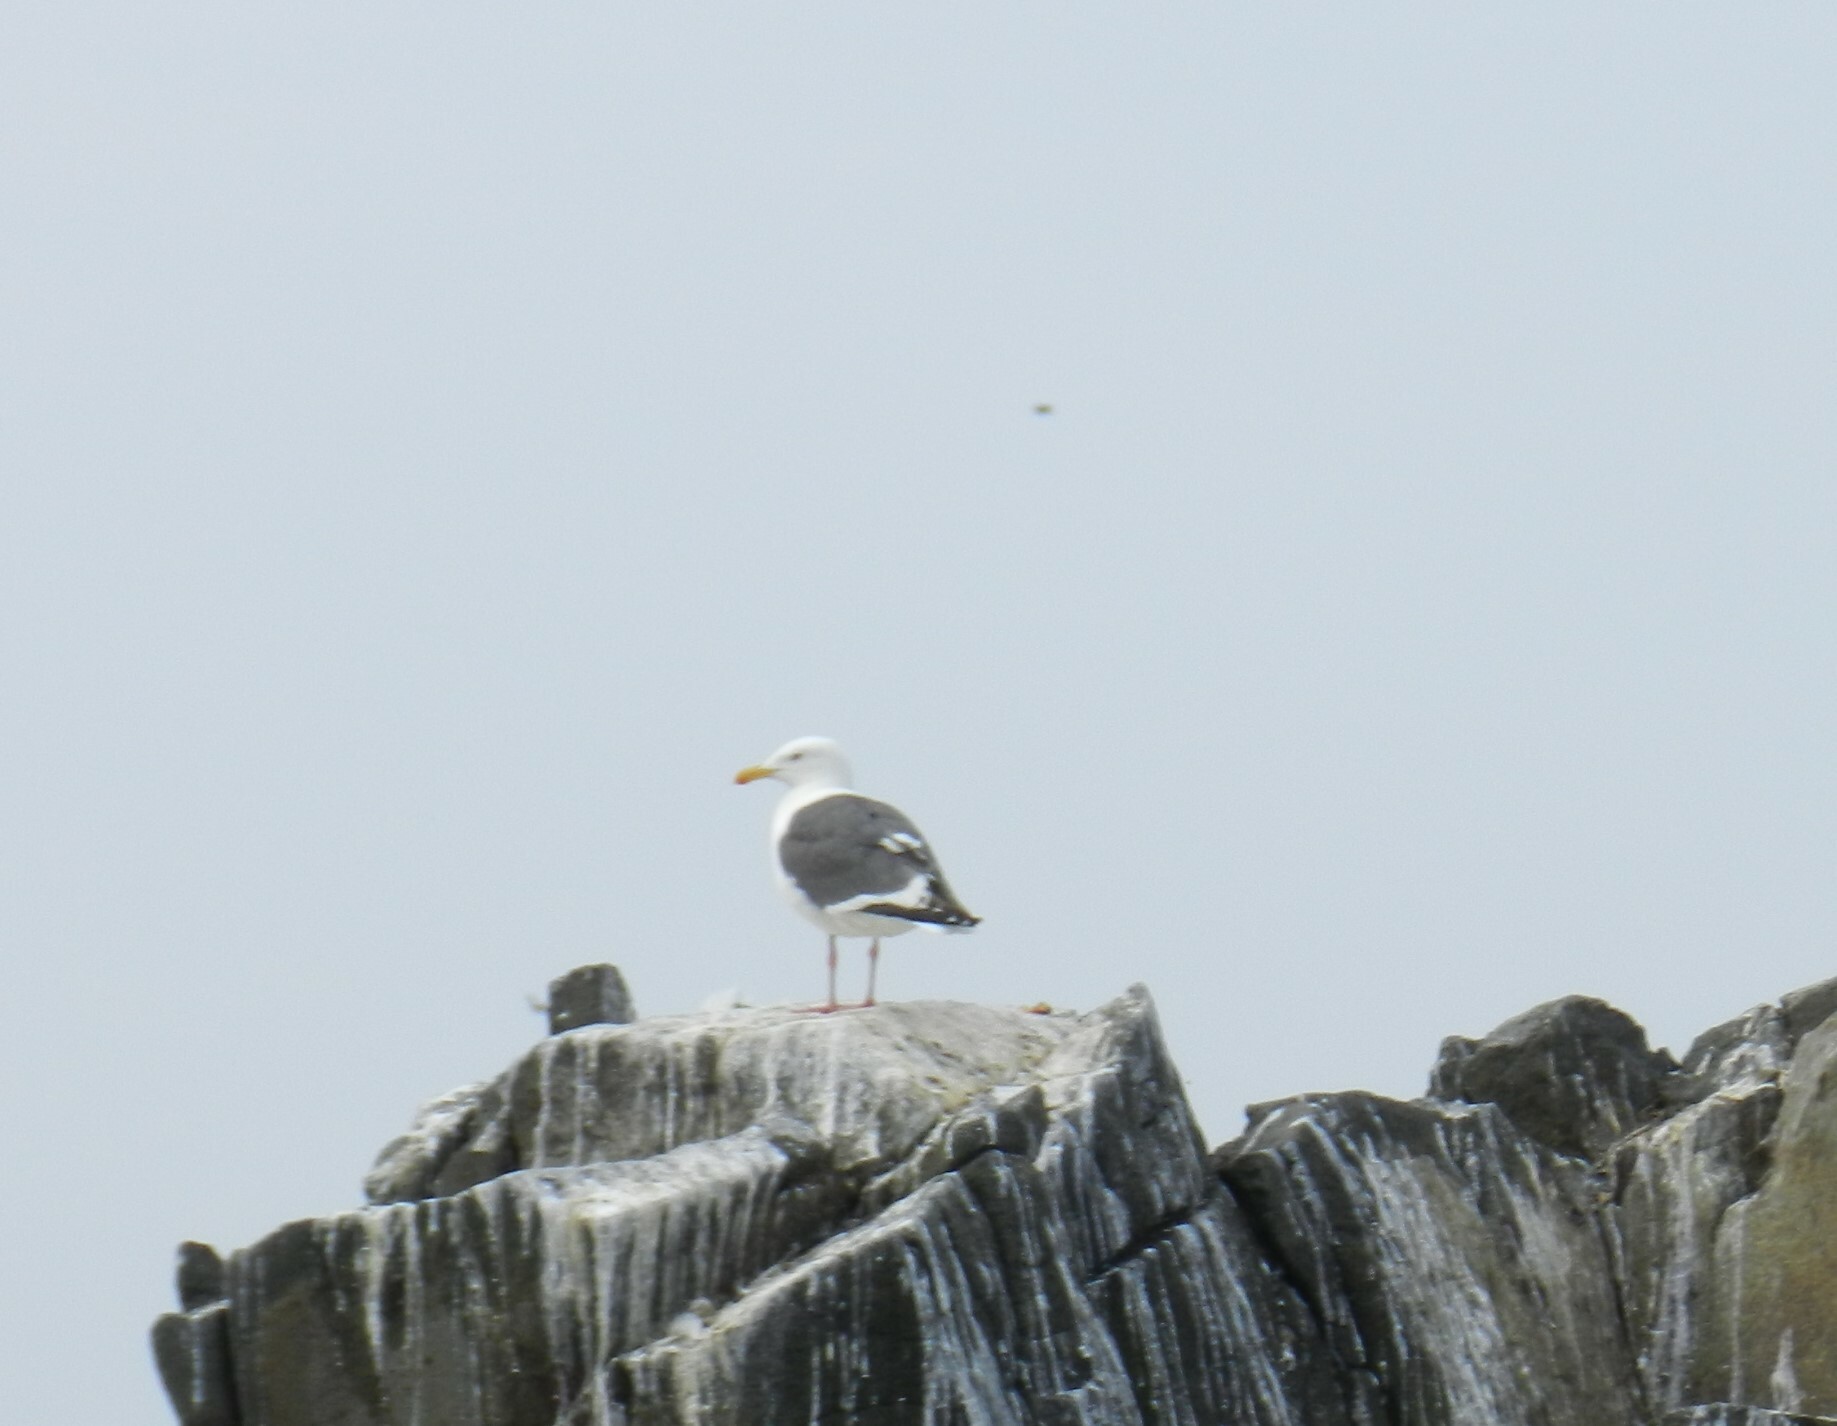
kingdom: Animalia
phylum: Chordata
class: Aves
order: Charadriiformes
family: Laridae
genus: Larus
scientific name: Larus schistisagus
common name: Slaty-backed gull
